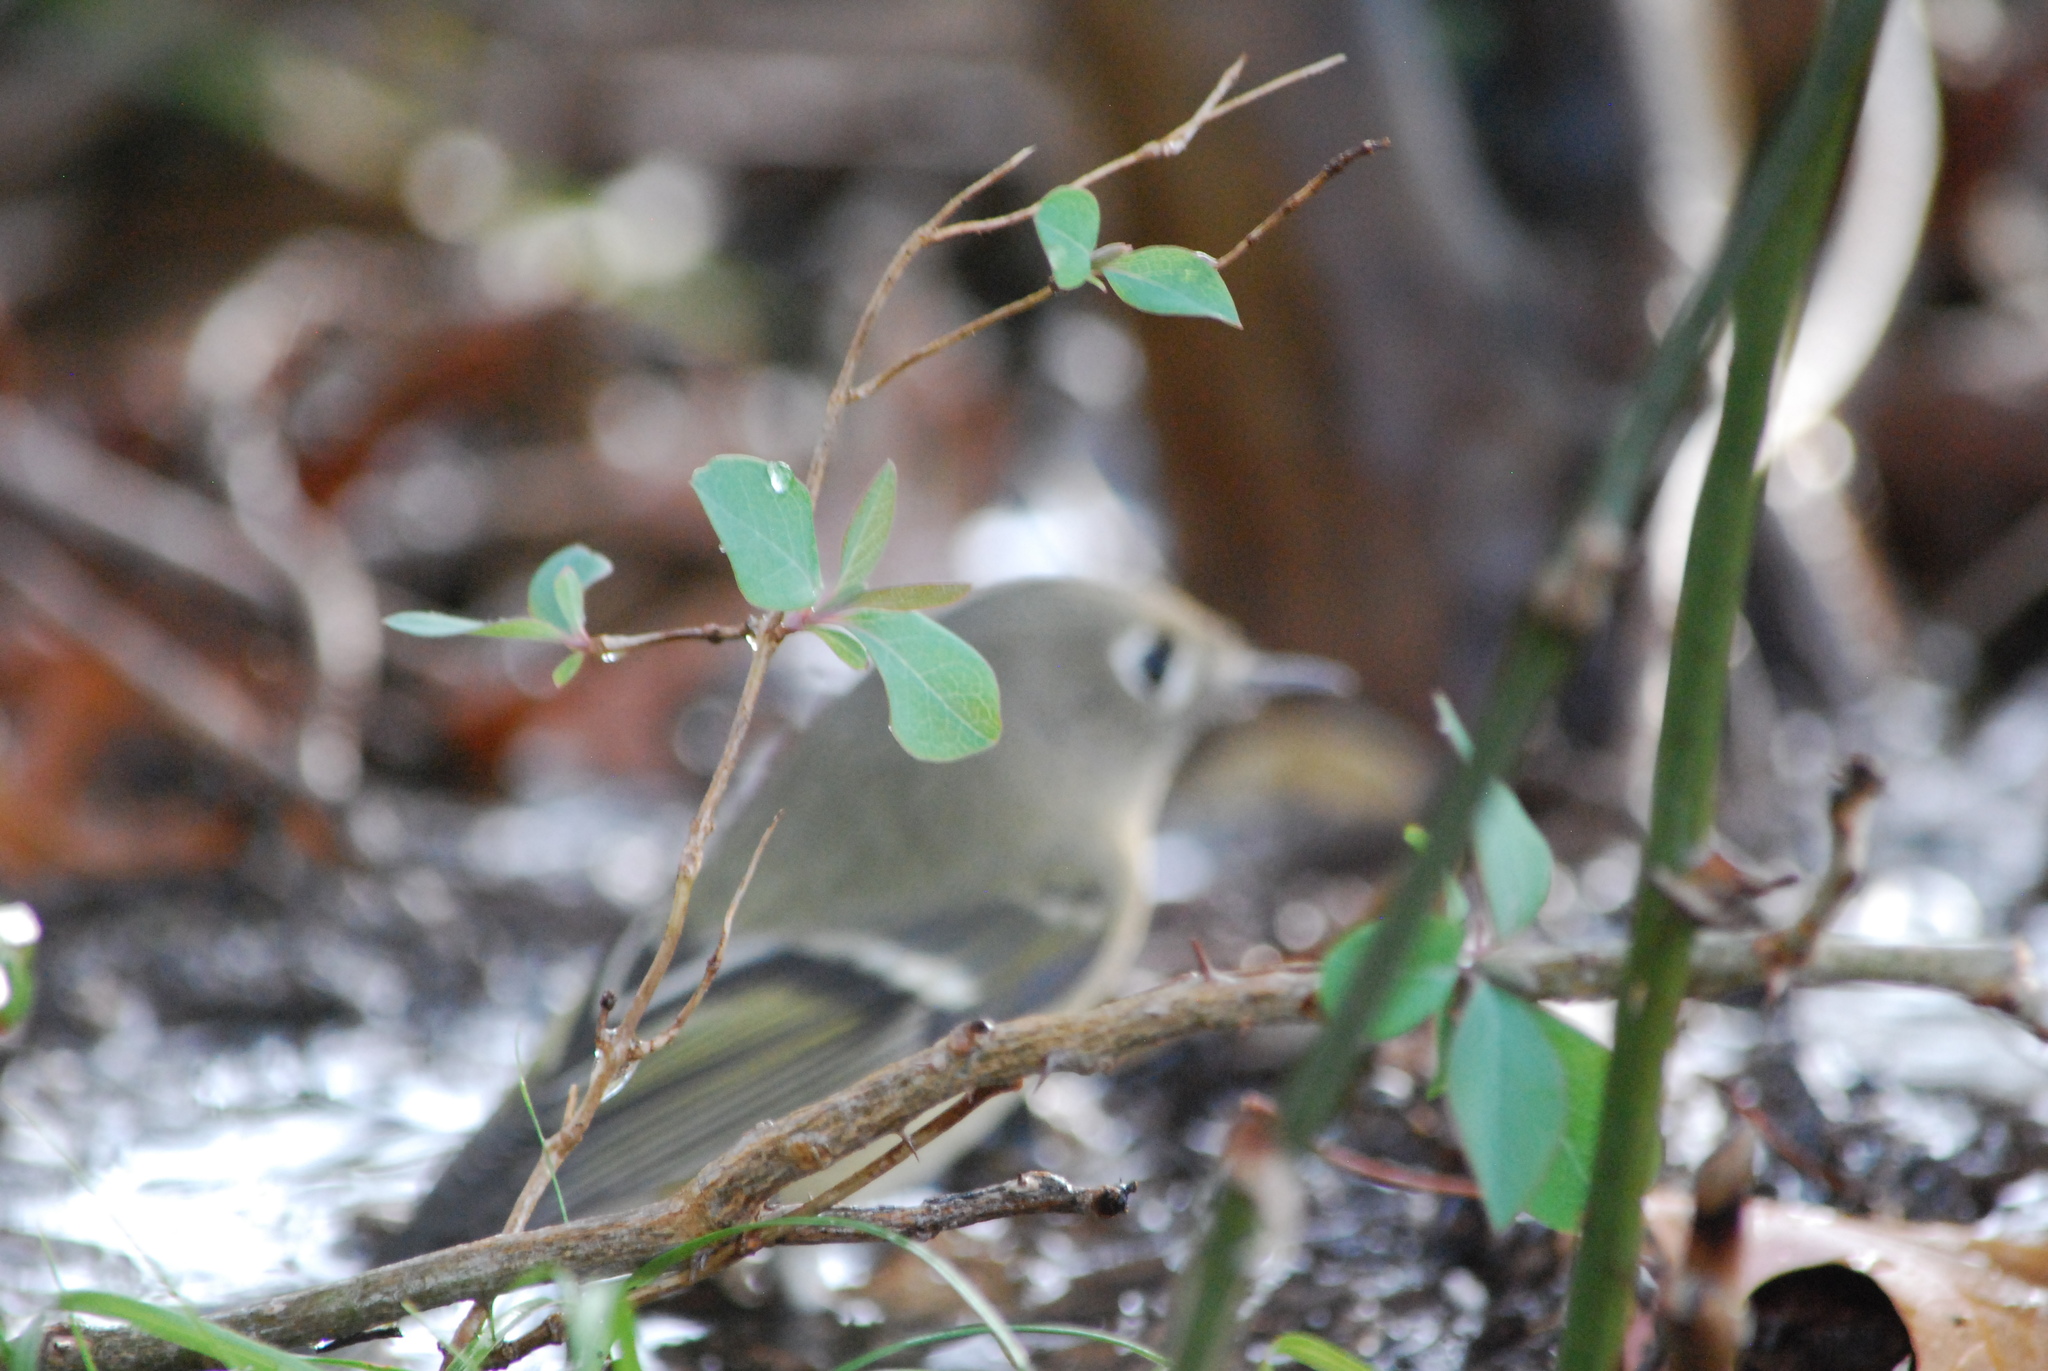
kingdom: Animalia
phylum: Chordata
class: Aves
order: Passeriformes
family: Regulidae
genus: Regulus
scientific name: Regulus calendula
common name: Ruby-crowned kinglet
